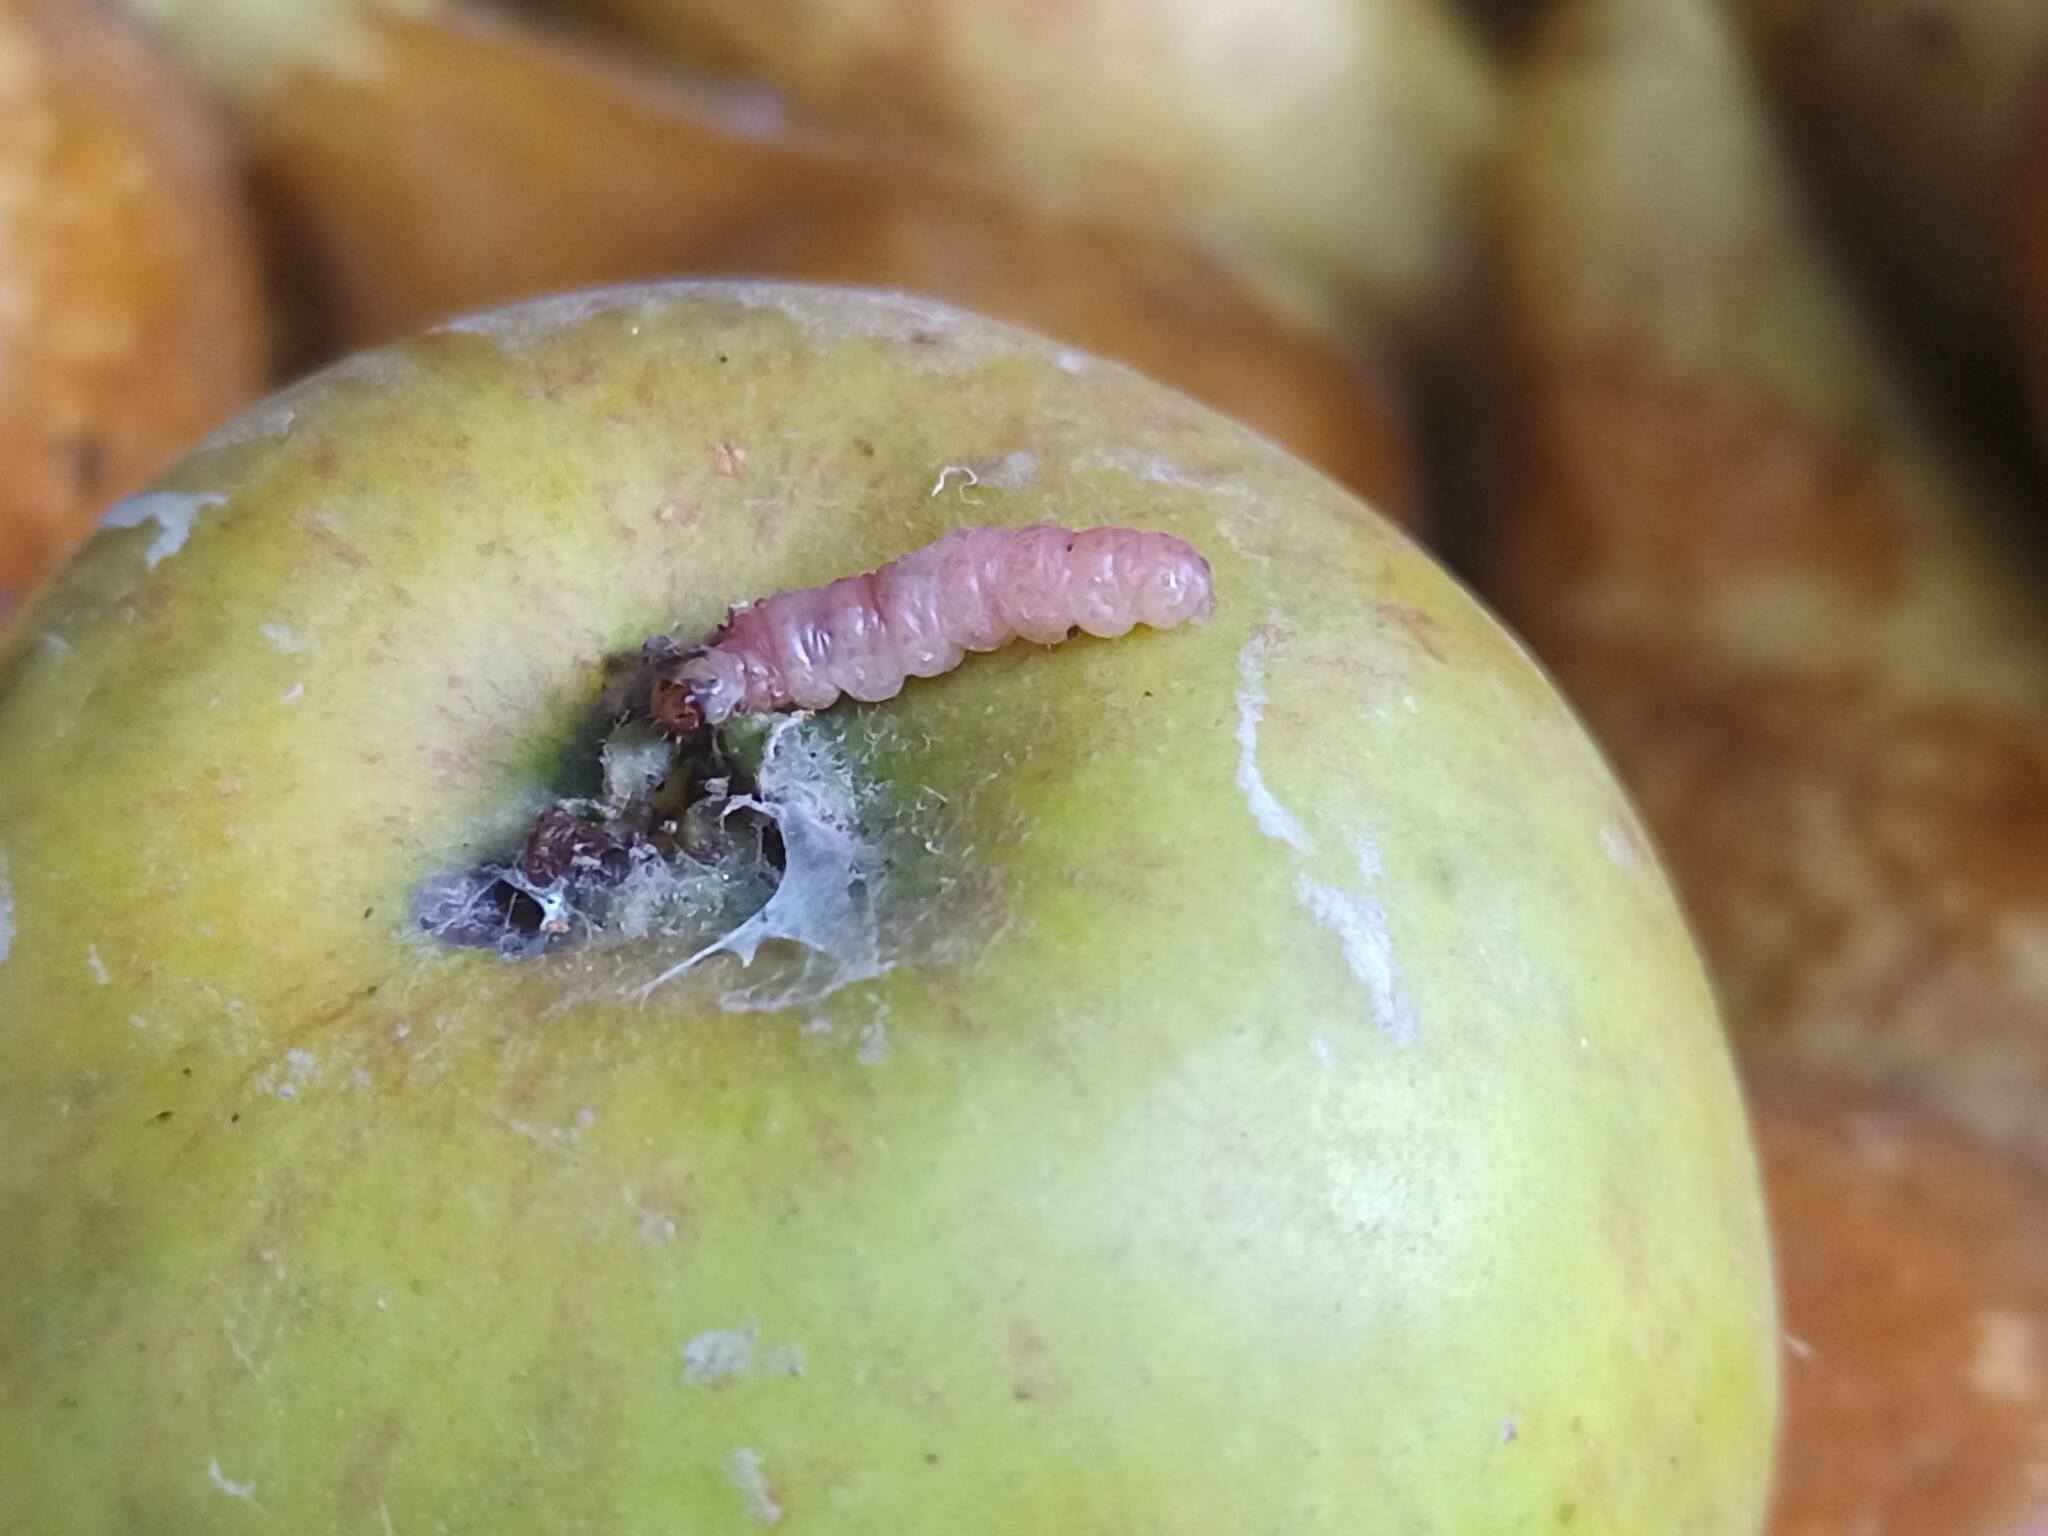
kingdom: Animalia
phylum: Arthropoda
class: Insecta
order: Lepidoptera
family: Tortricidae
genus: Cydia
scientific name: Cydia pomonella
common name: Codling moth
